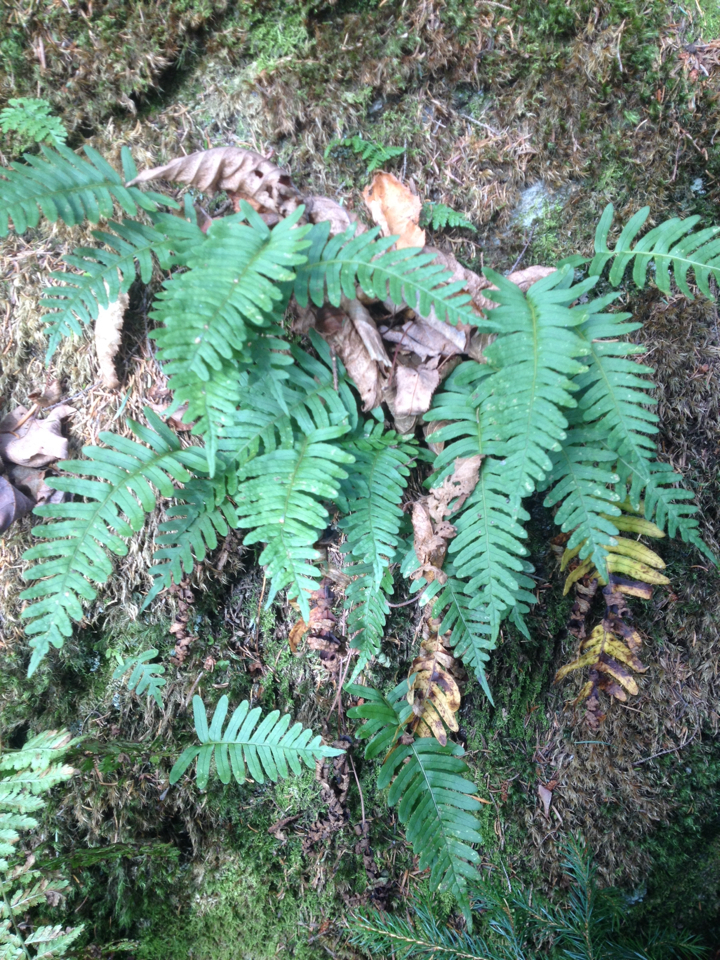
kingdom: Plantae
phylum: Tracheophyta
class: Polypodiopsida
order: Polypodiales
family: Polypodiaceae
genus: Polypodium
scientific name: Polypodium virginianum
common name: American wall fern
